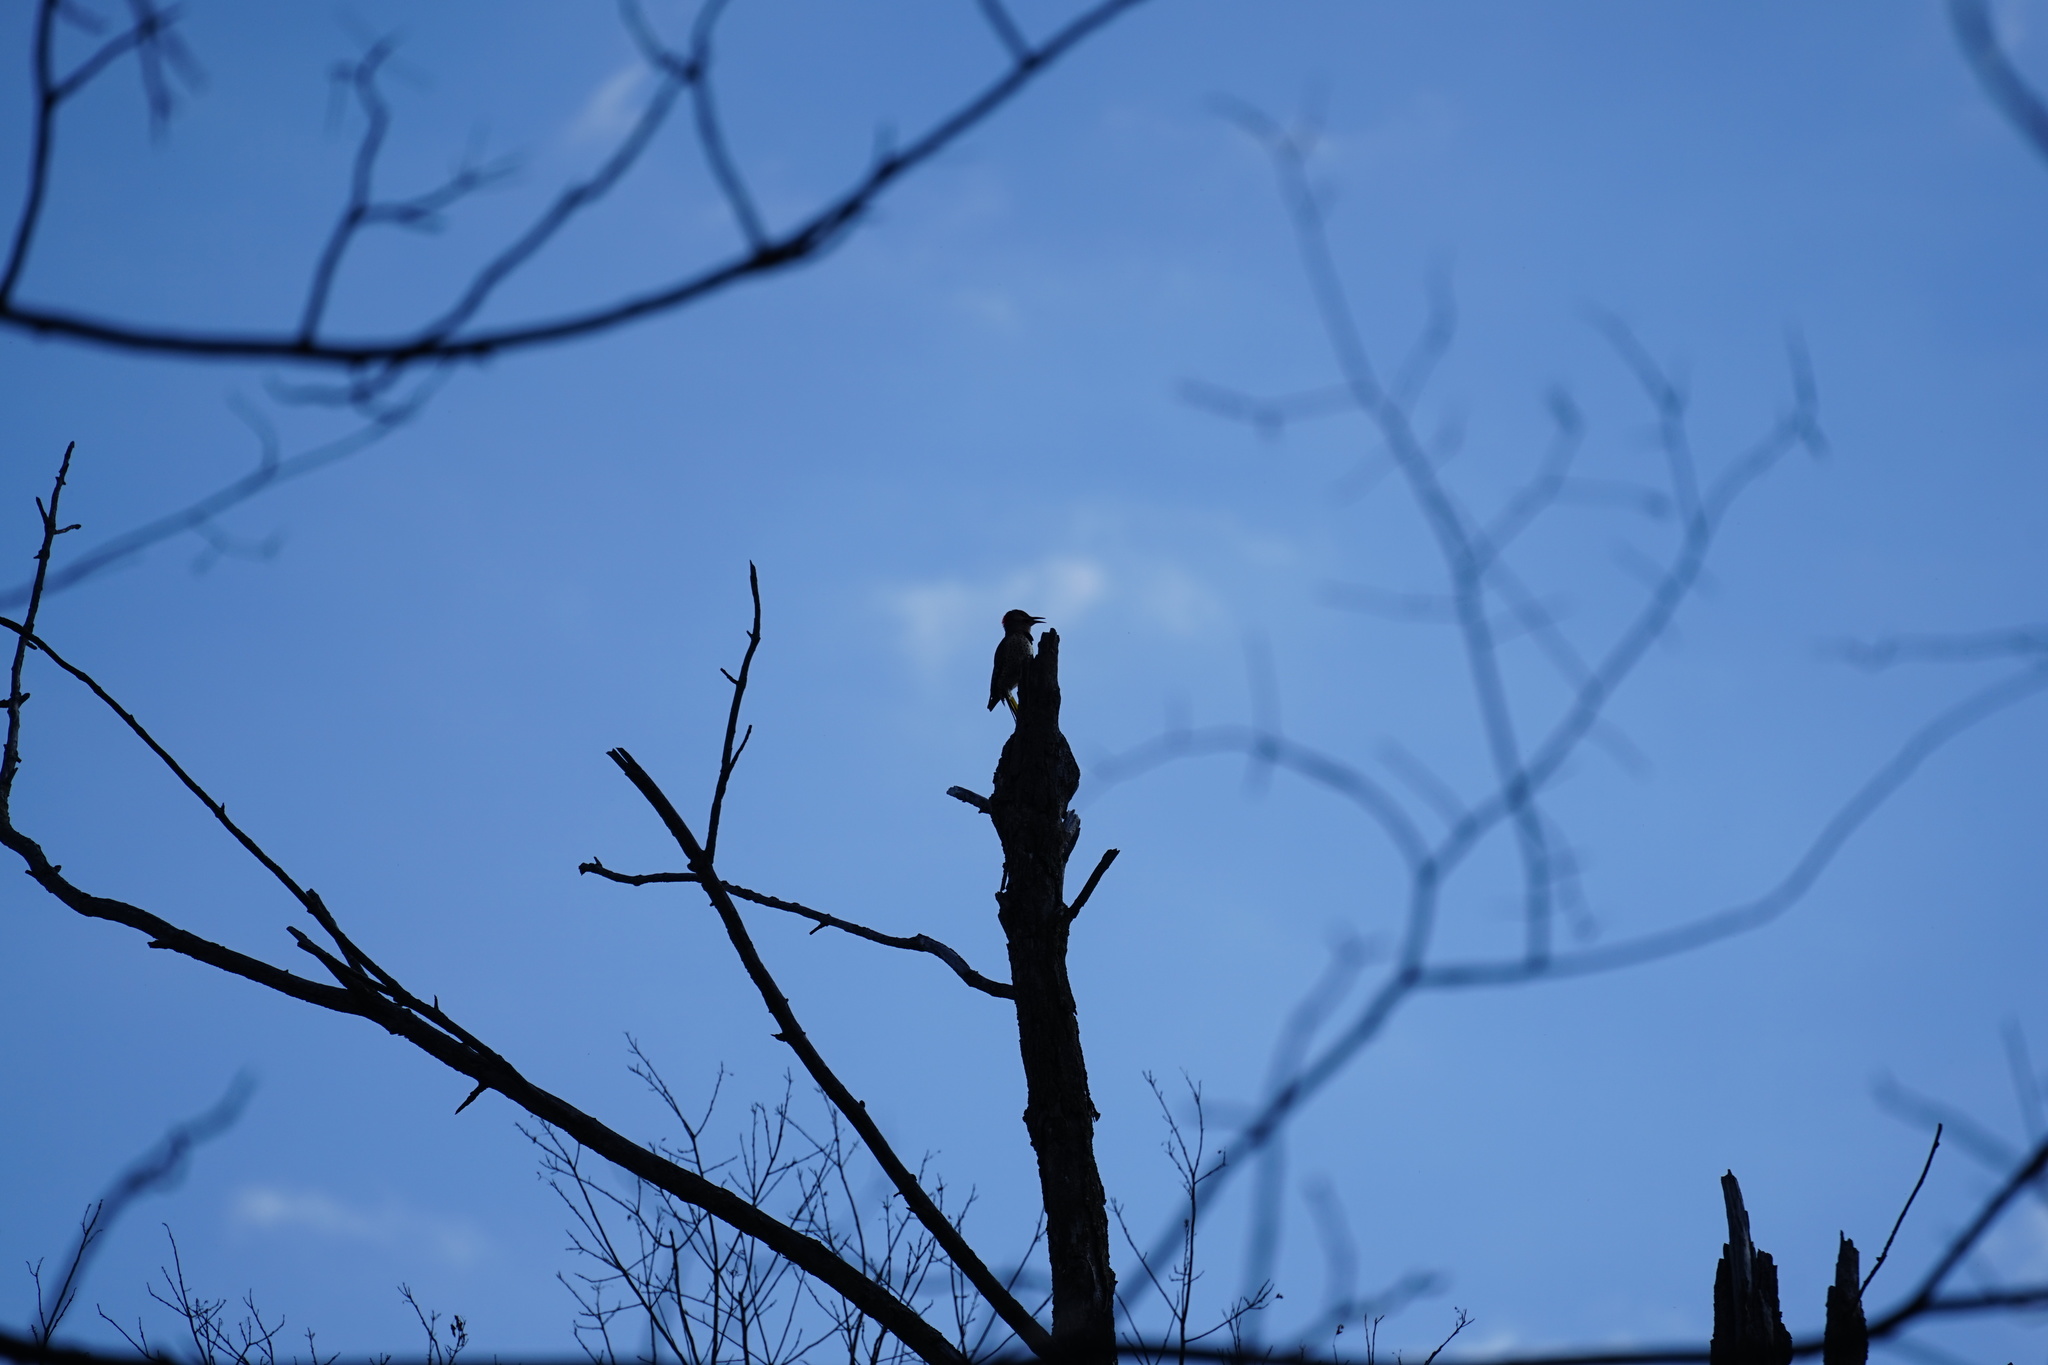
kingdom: Animalia
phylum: Chordata
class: Aves
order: Piciformes
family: Picidae
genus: Colaptes
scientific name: Colaptes auratus
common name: Northern flicker
